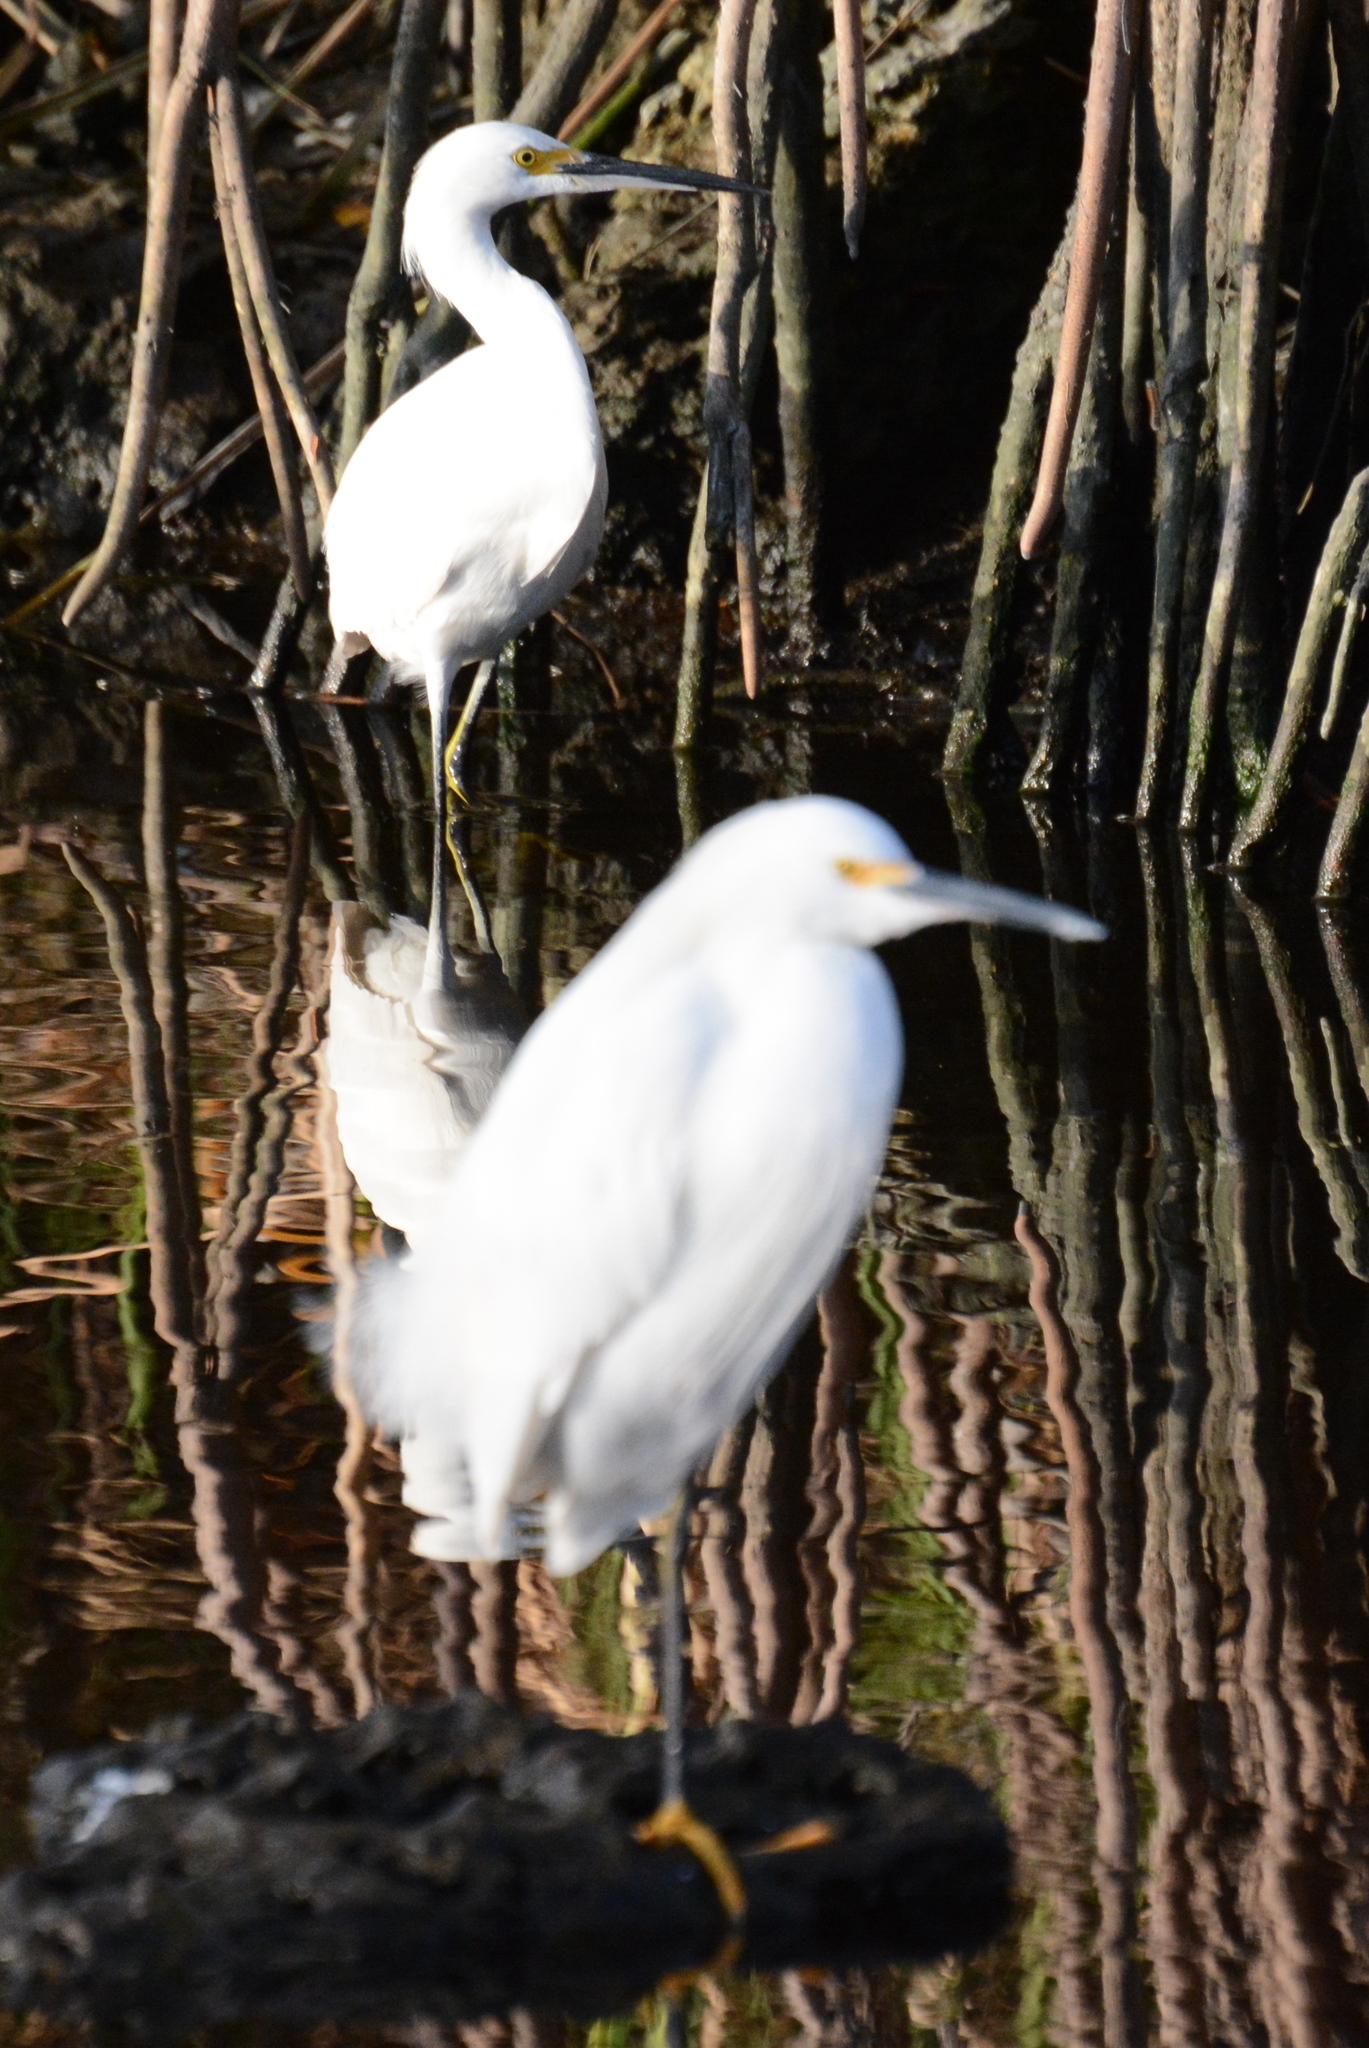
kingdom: Animalia
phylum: Chordata
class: Aves
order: Pelecaniformes
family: Ardeidae
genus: Egretta
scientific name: Egretta thula
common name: Snowy egret
